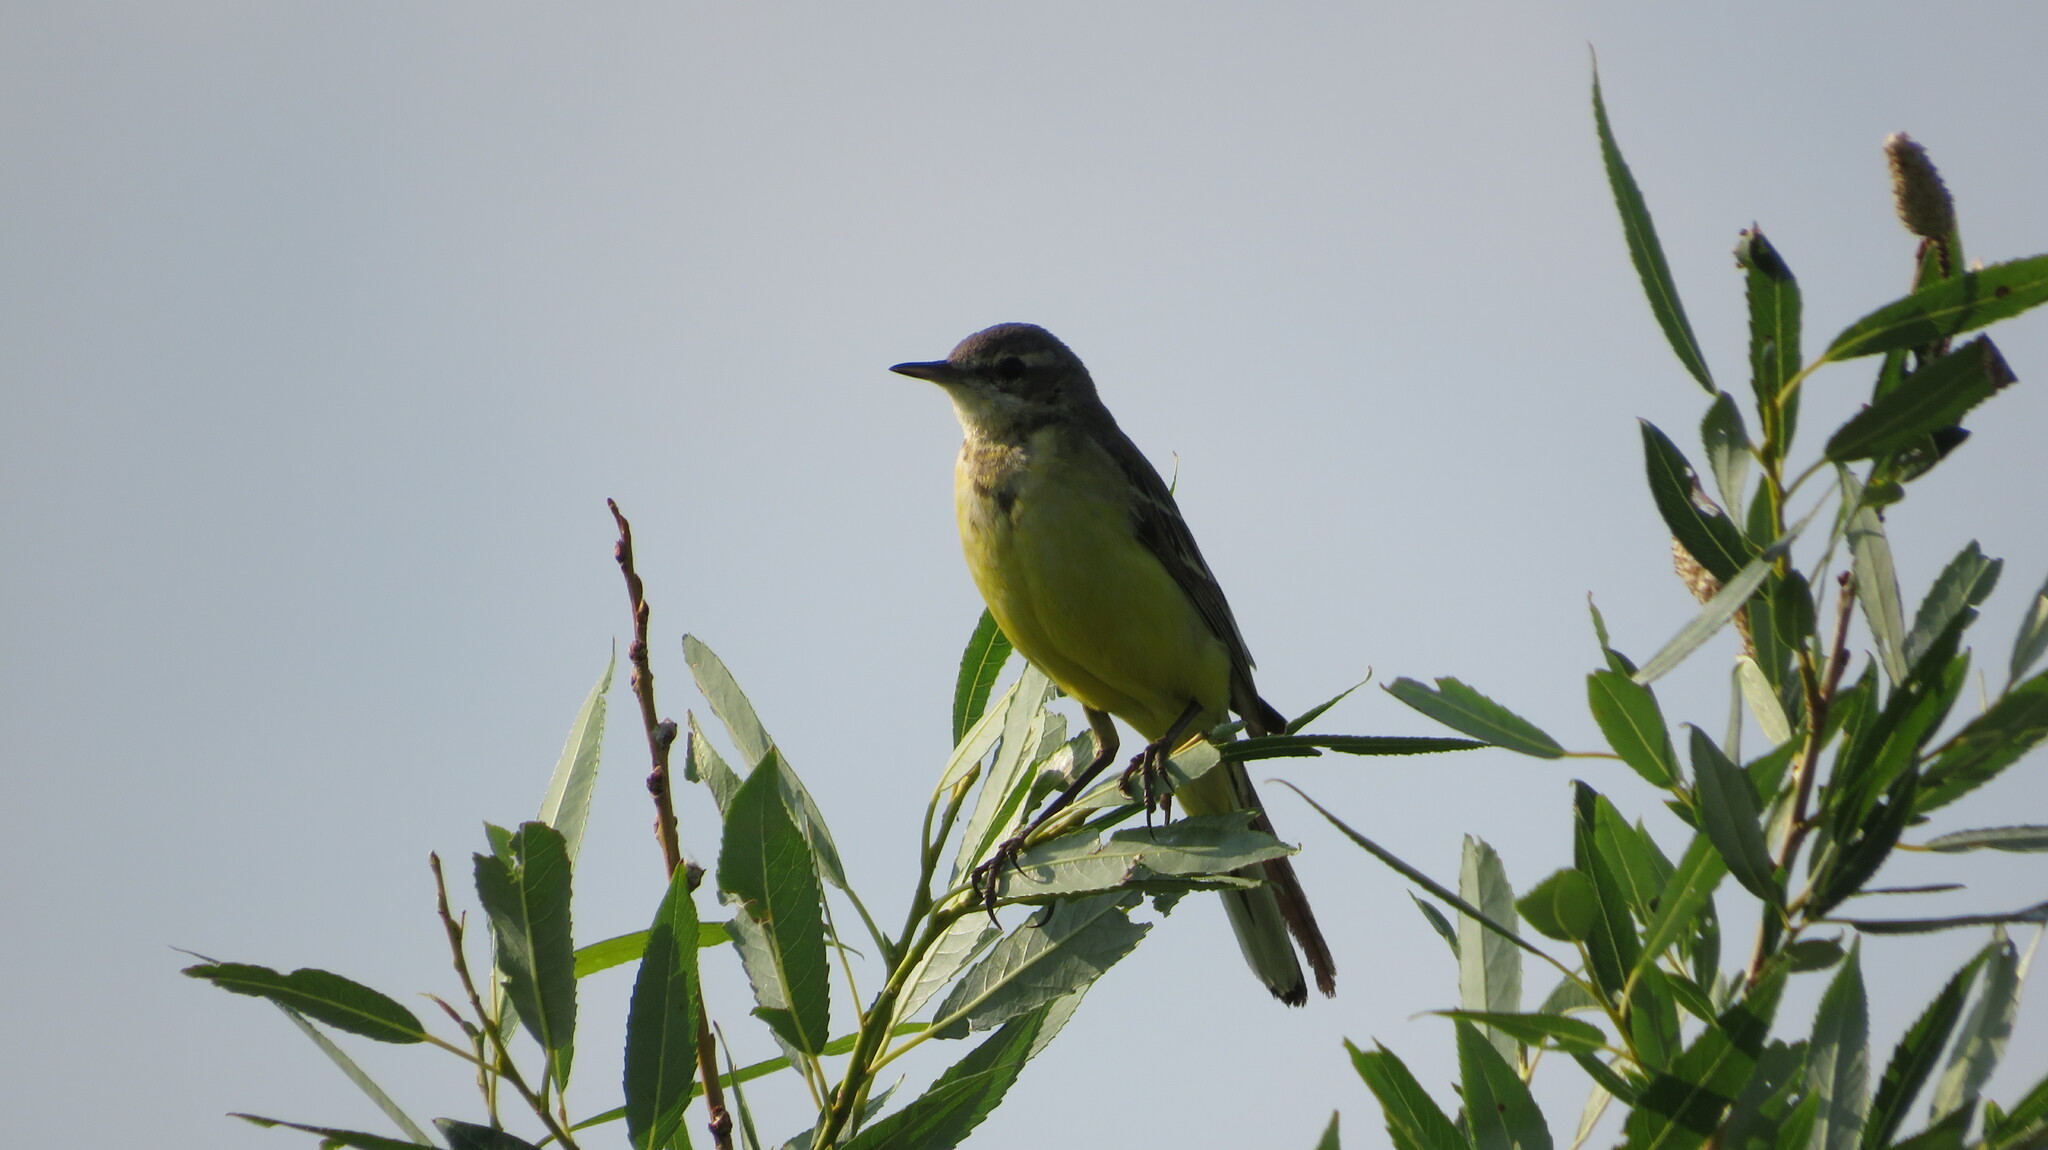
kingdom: Animalia
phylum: Chordata
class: Aves
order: Passeriformes
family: Motacillidae
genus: Motacilla
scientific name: Motacilla flava
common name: Western yellow wagtail
